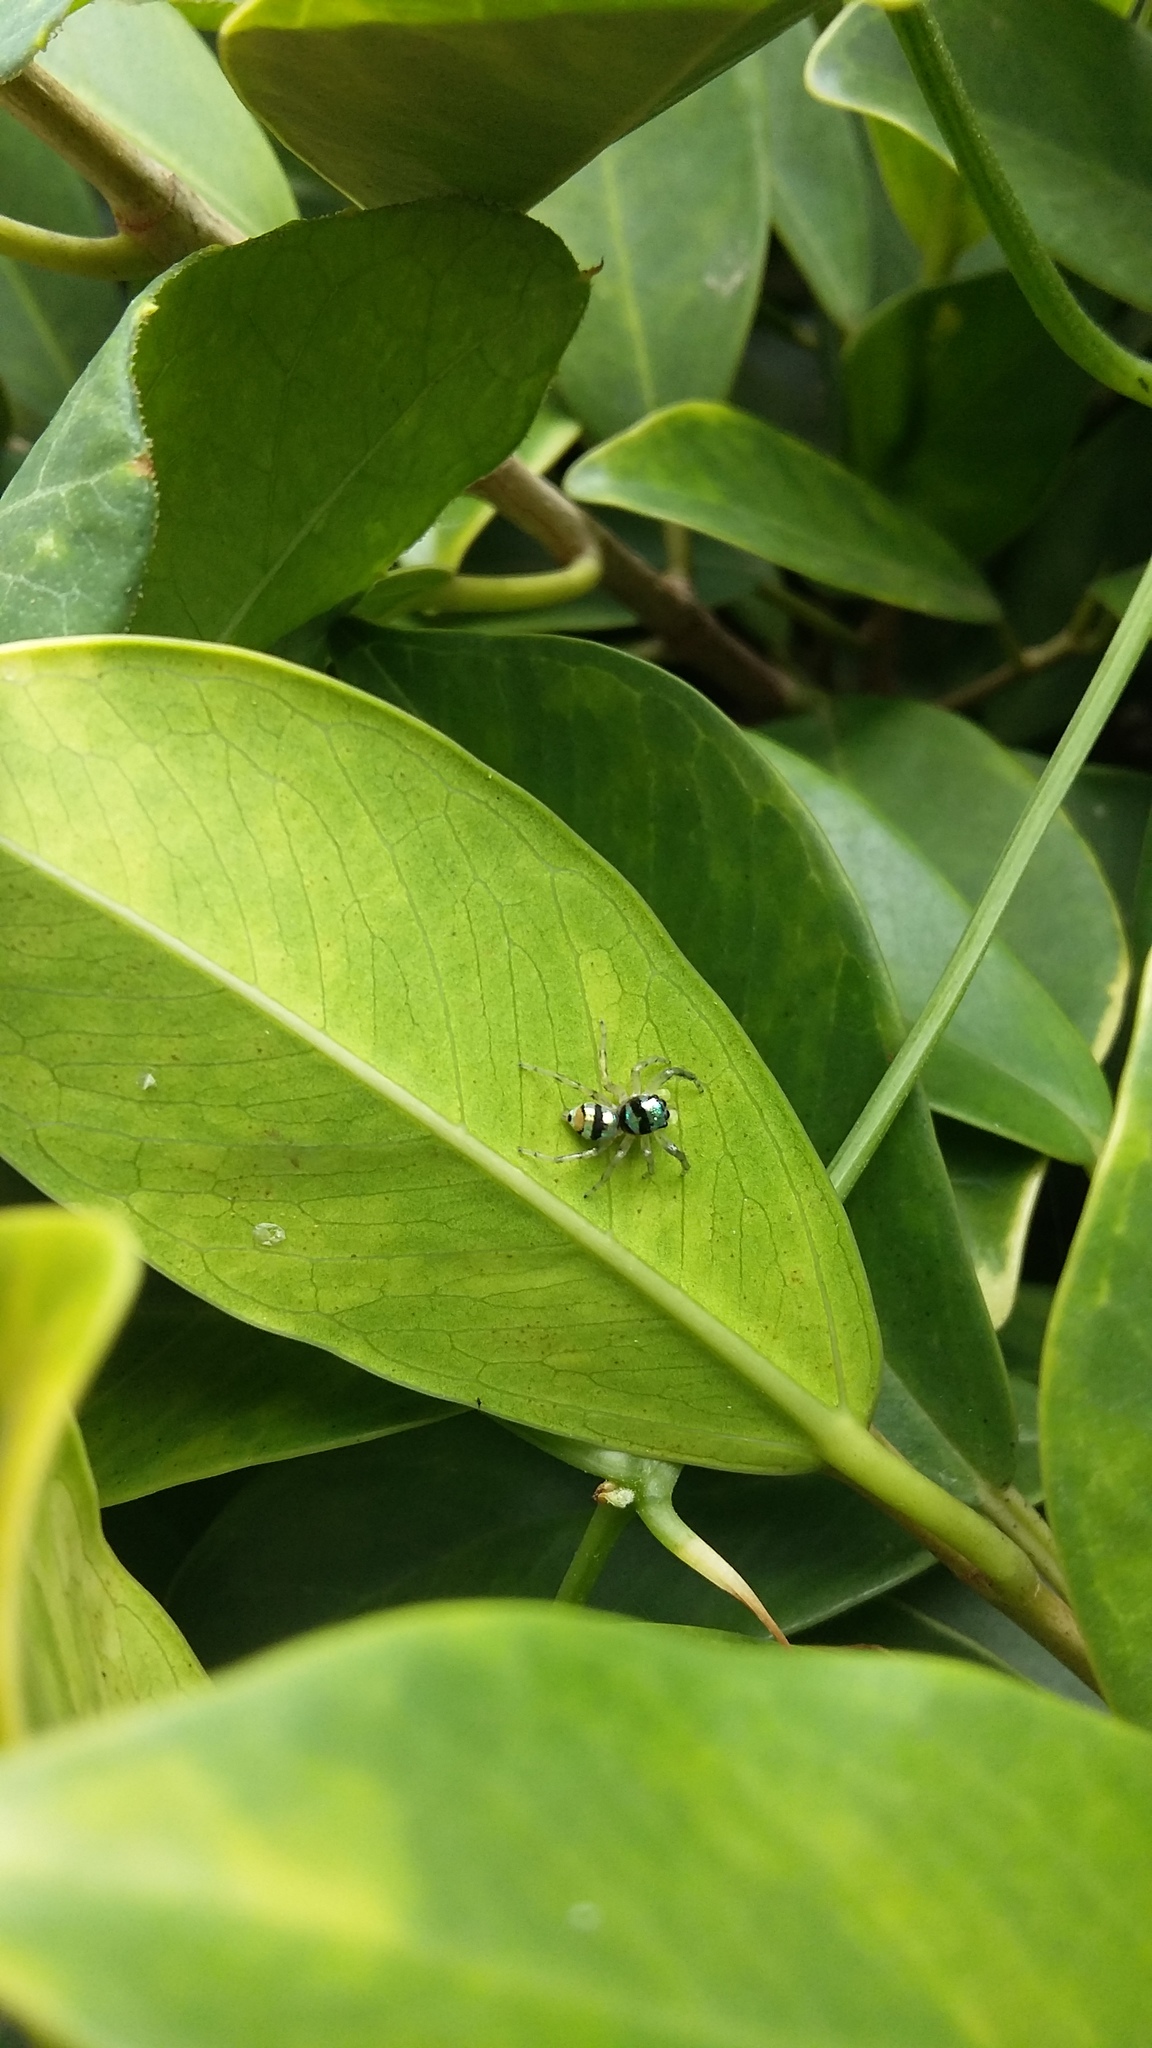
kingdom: Animalia
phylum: Arthropoda
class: Arachnida
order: Araneae
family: Salticidae
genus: Phintella
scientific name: Phintella vittata
